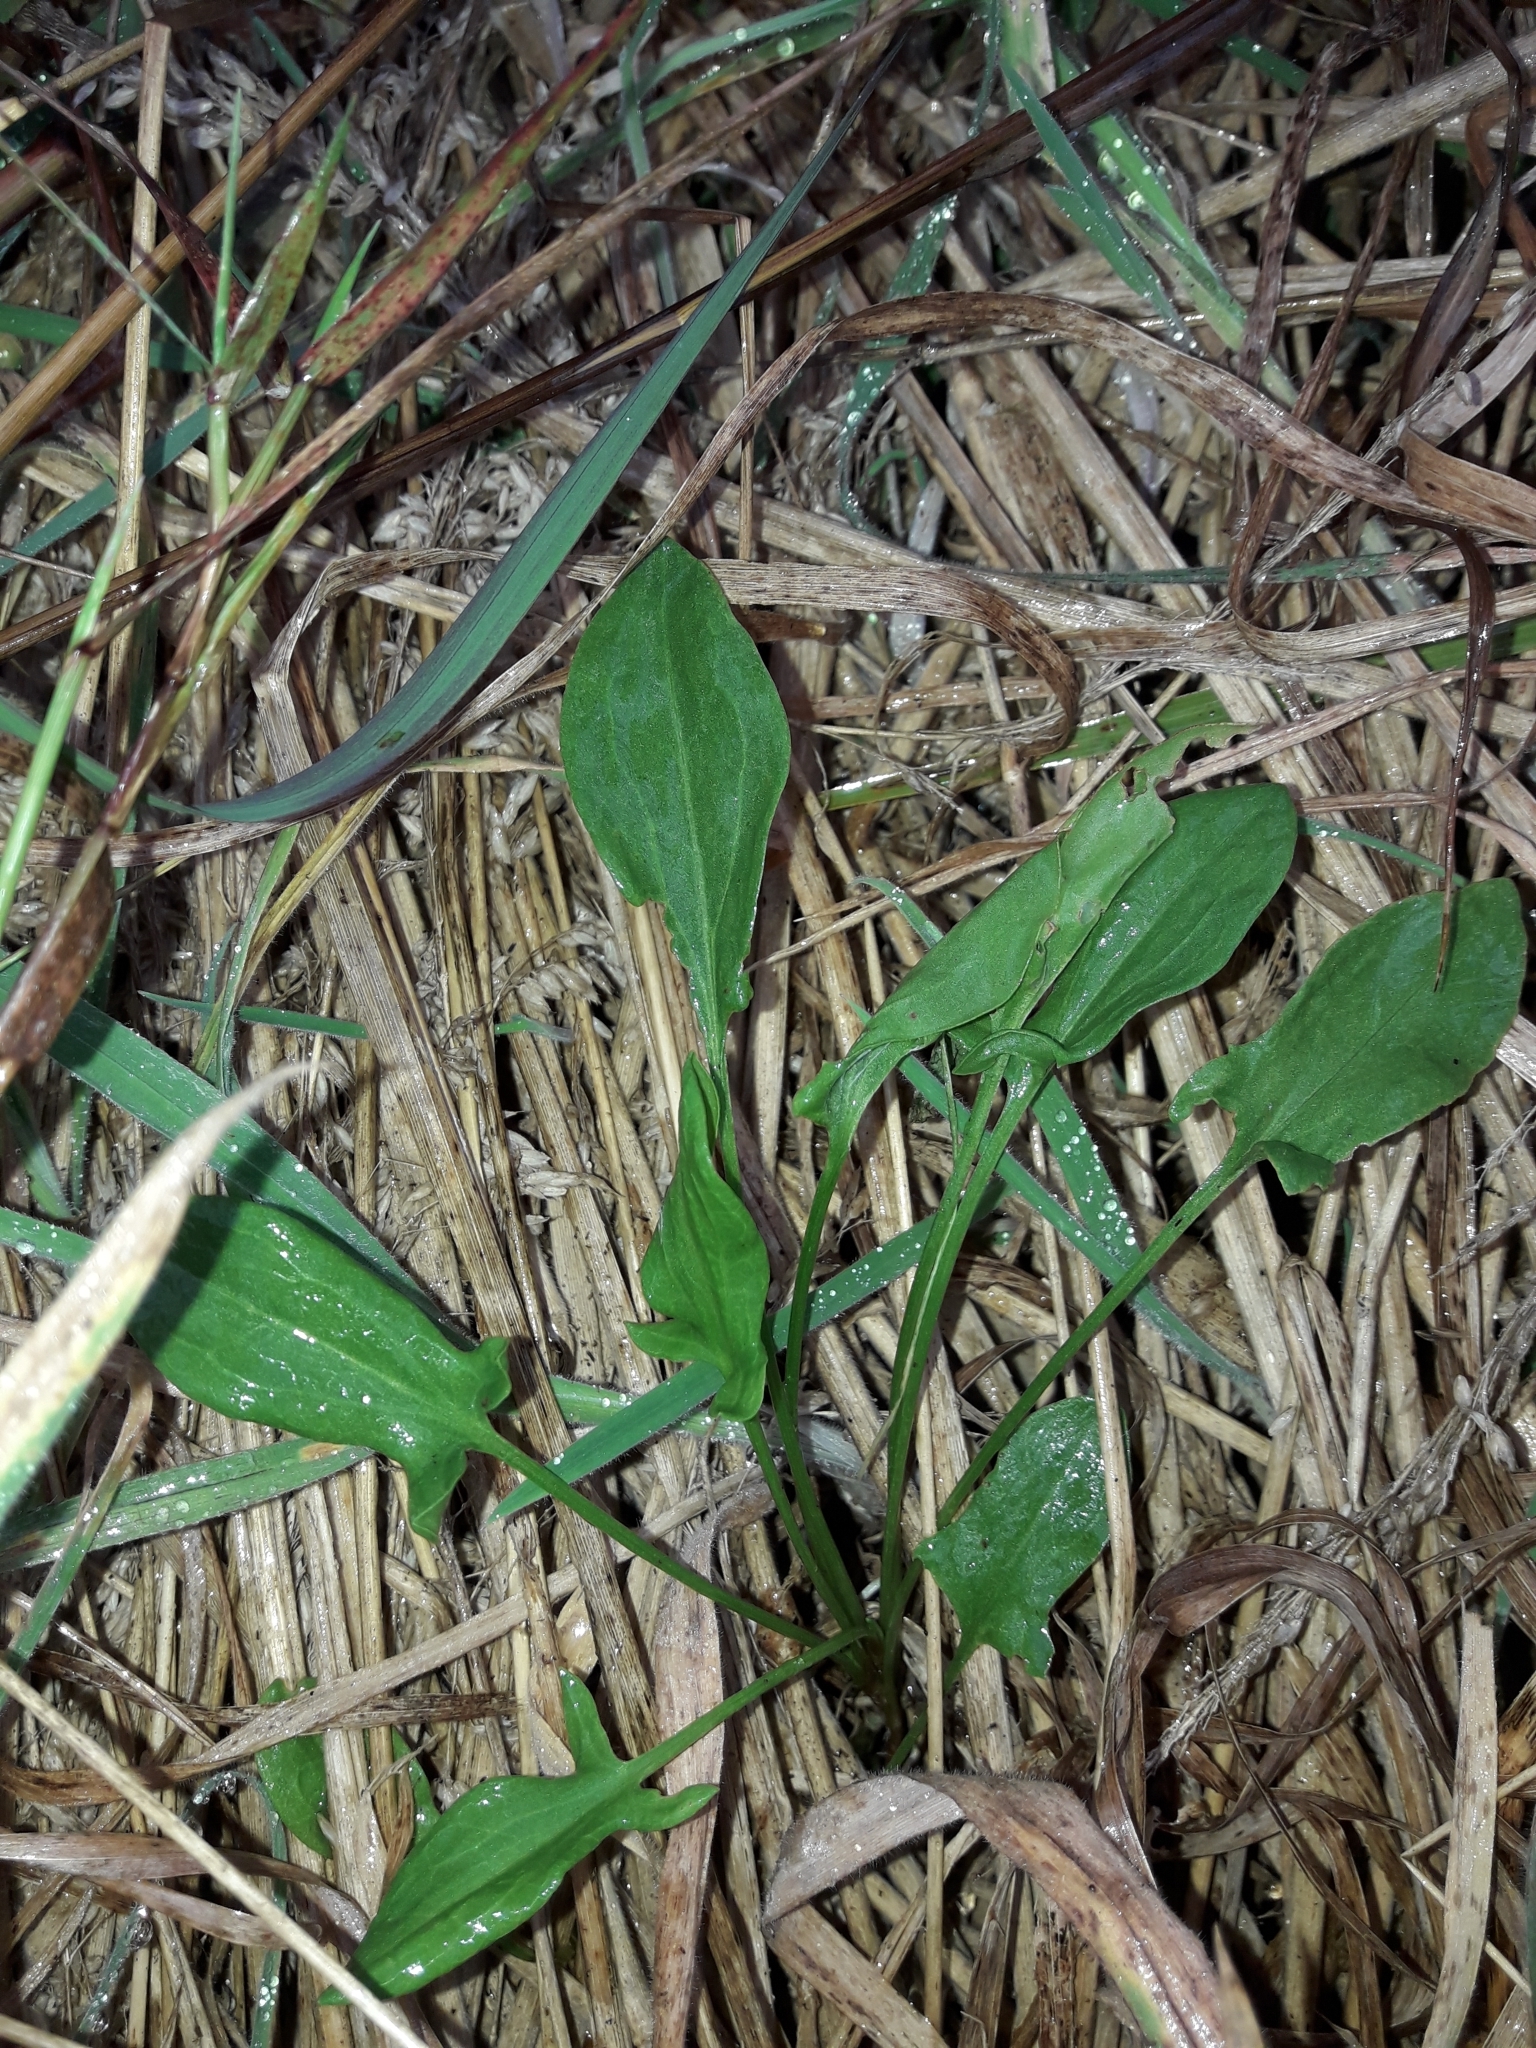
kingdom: Plantae
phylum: Tracheophyta
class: Magnoliopsida
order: Caryophyllales
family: Polygonaceae
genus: Rumex
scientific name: Rumex acetosella
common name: Common sheep sorrel
